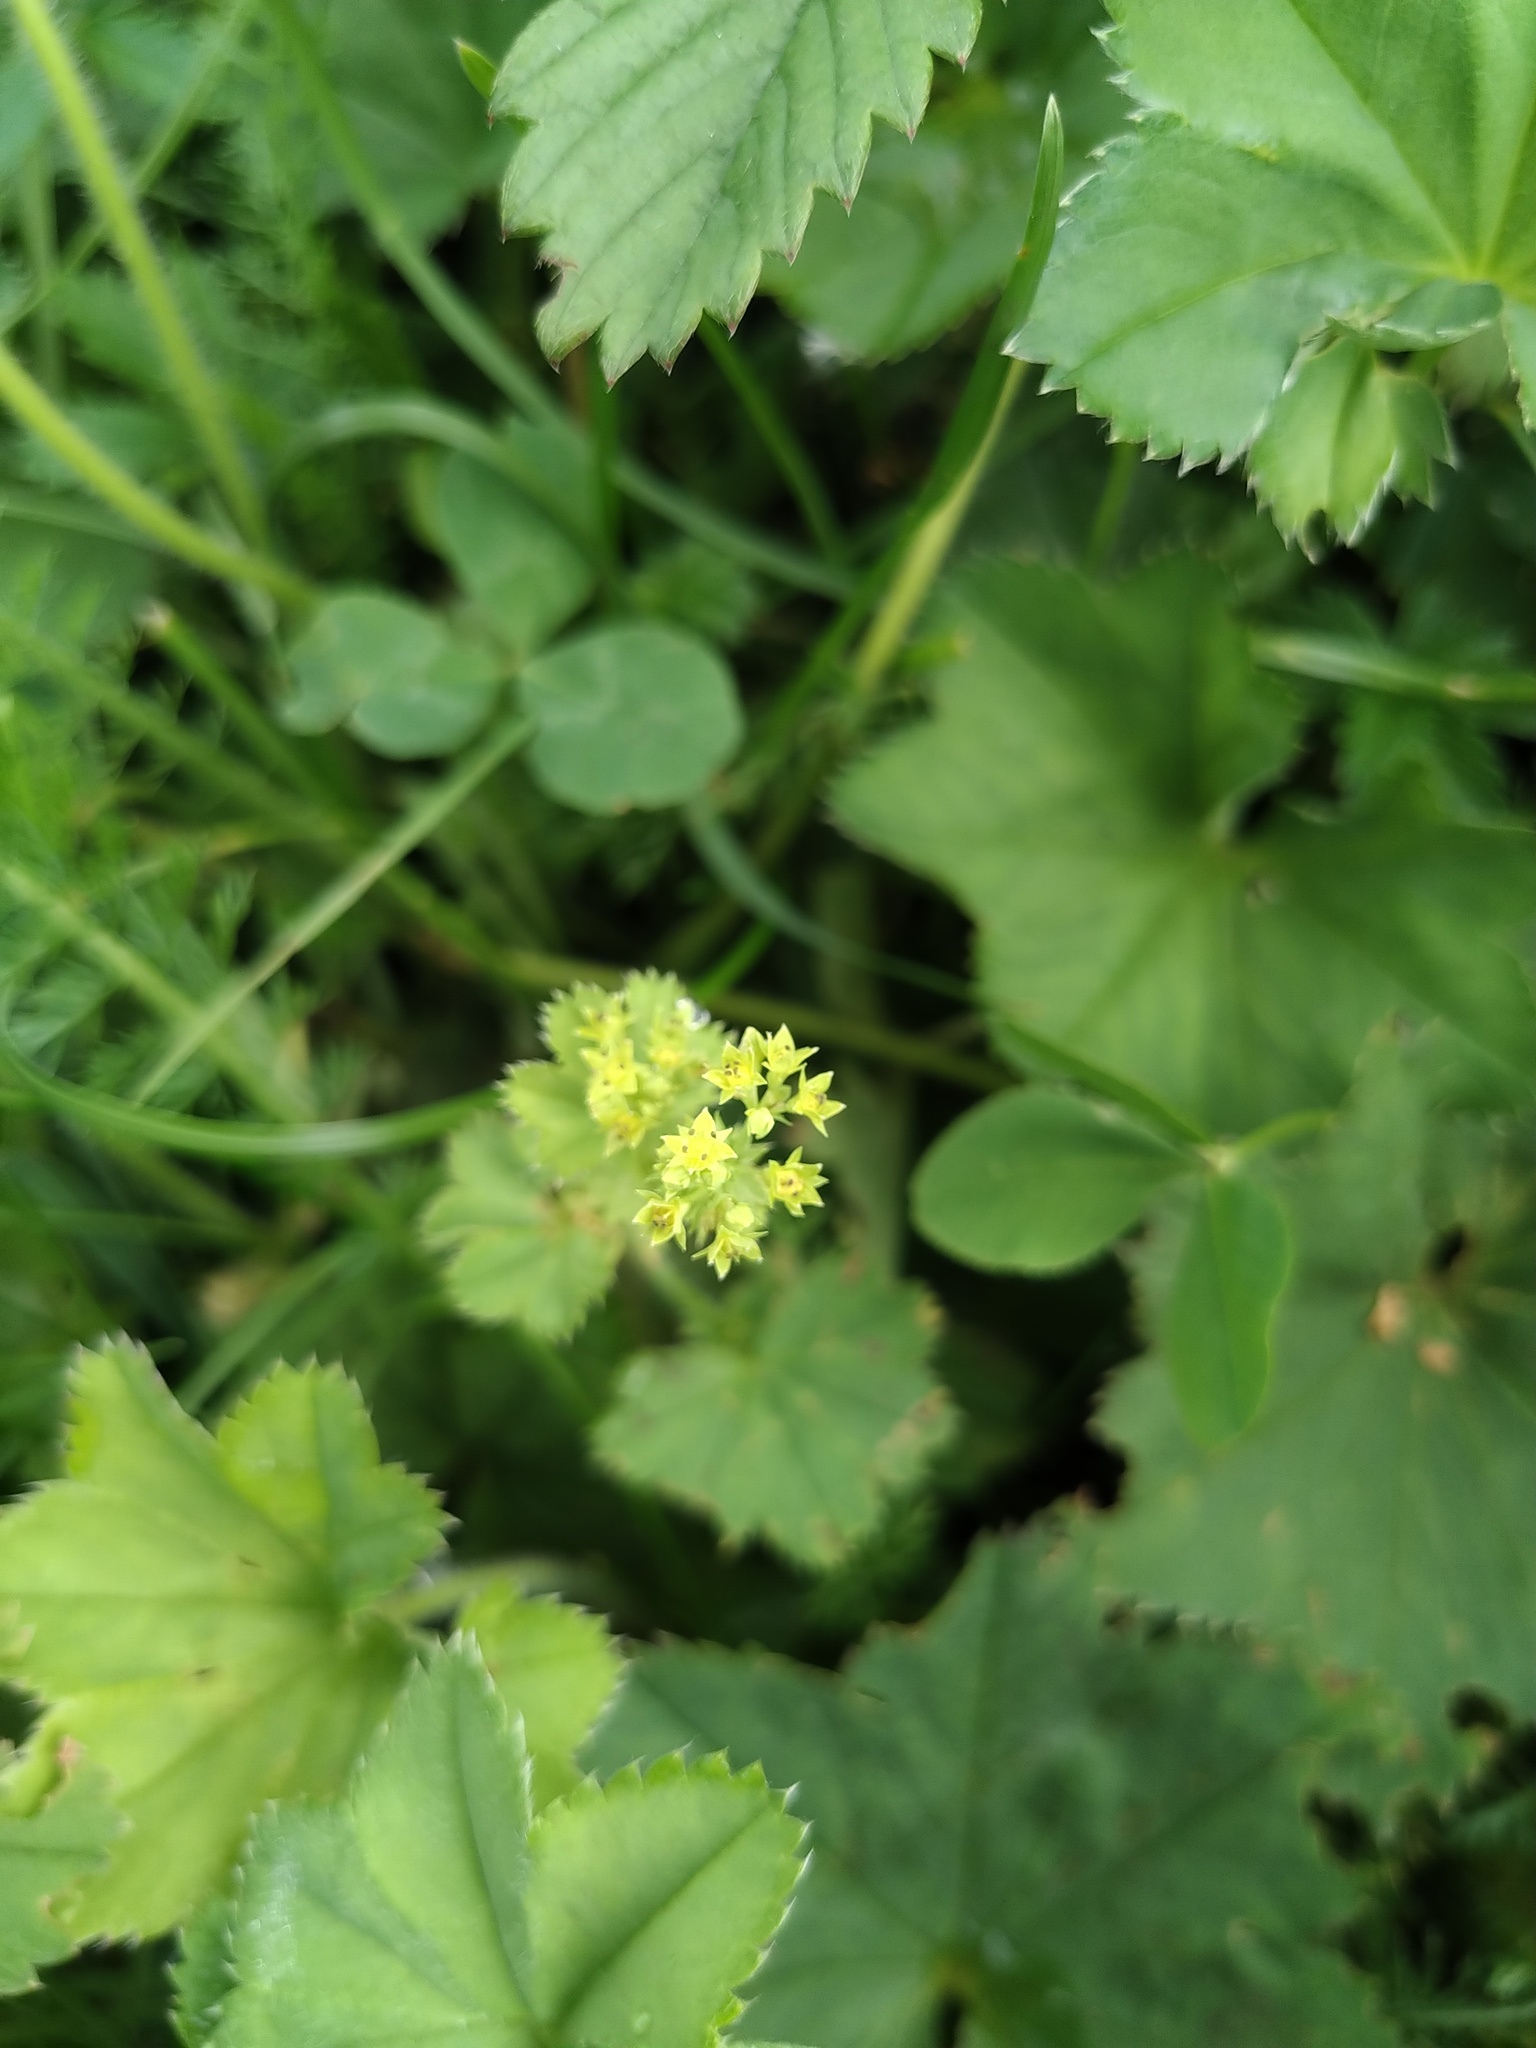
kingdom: Plantae
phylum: Tracheophyta
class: Magnoliopsida
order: Rosales
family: Rosaceae
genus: Alchemilla
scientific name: Alchemilla subcrenata
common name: Broadtooth lady's mantle
